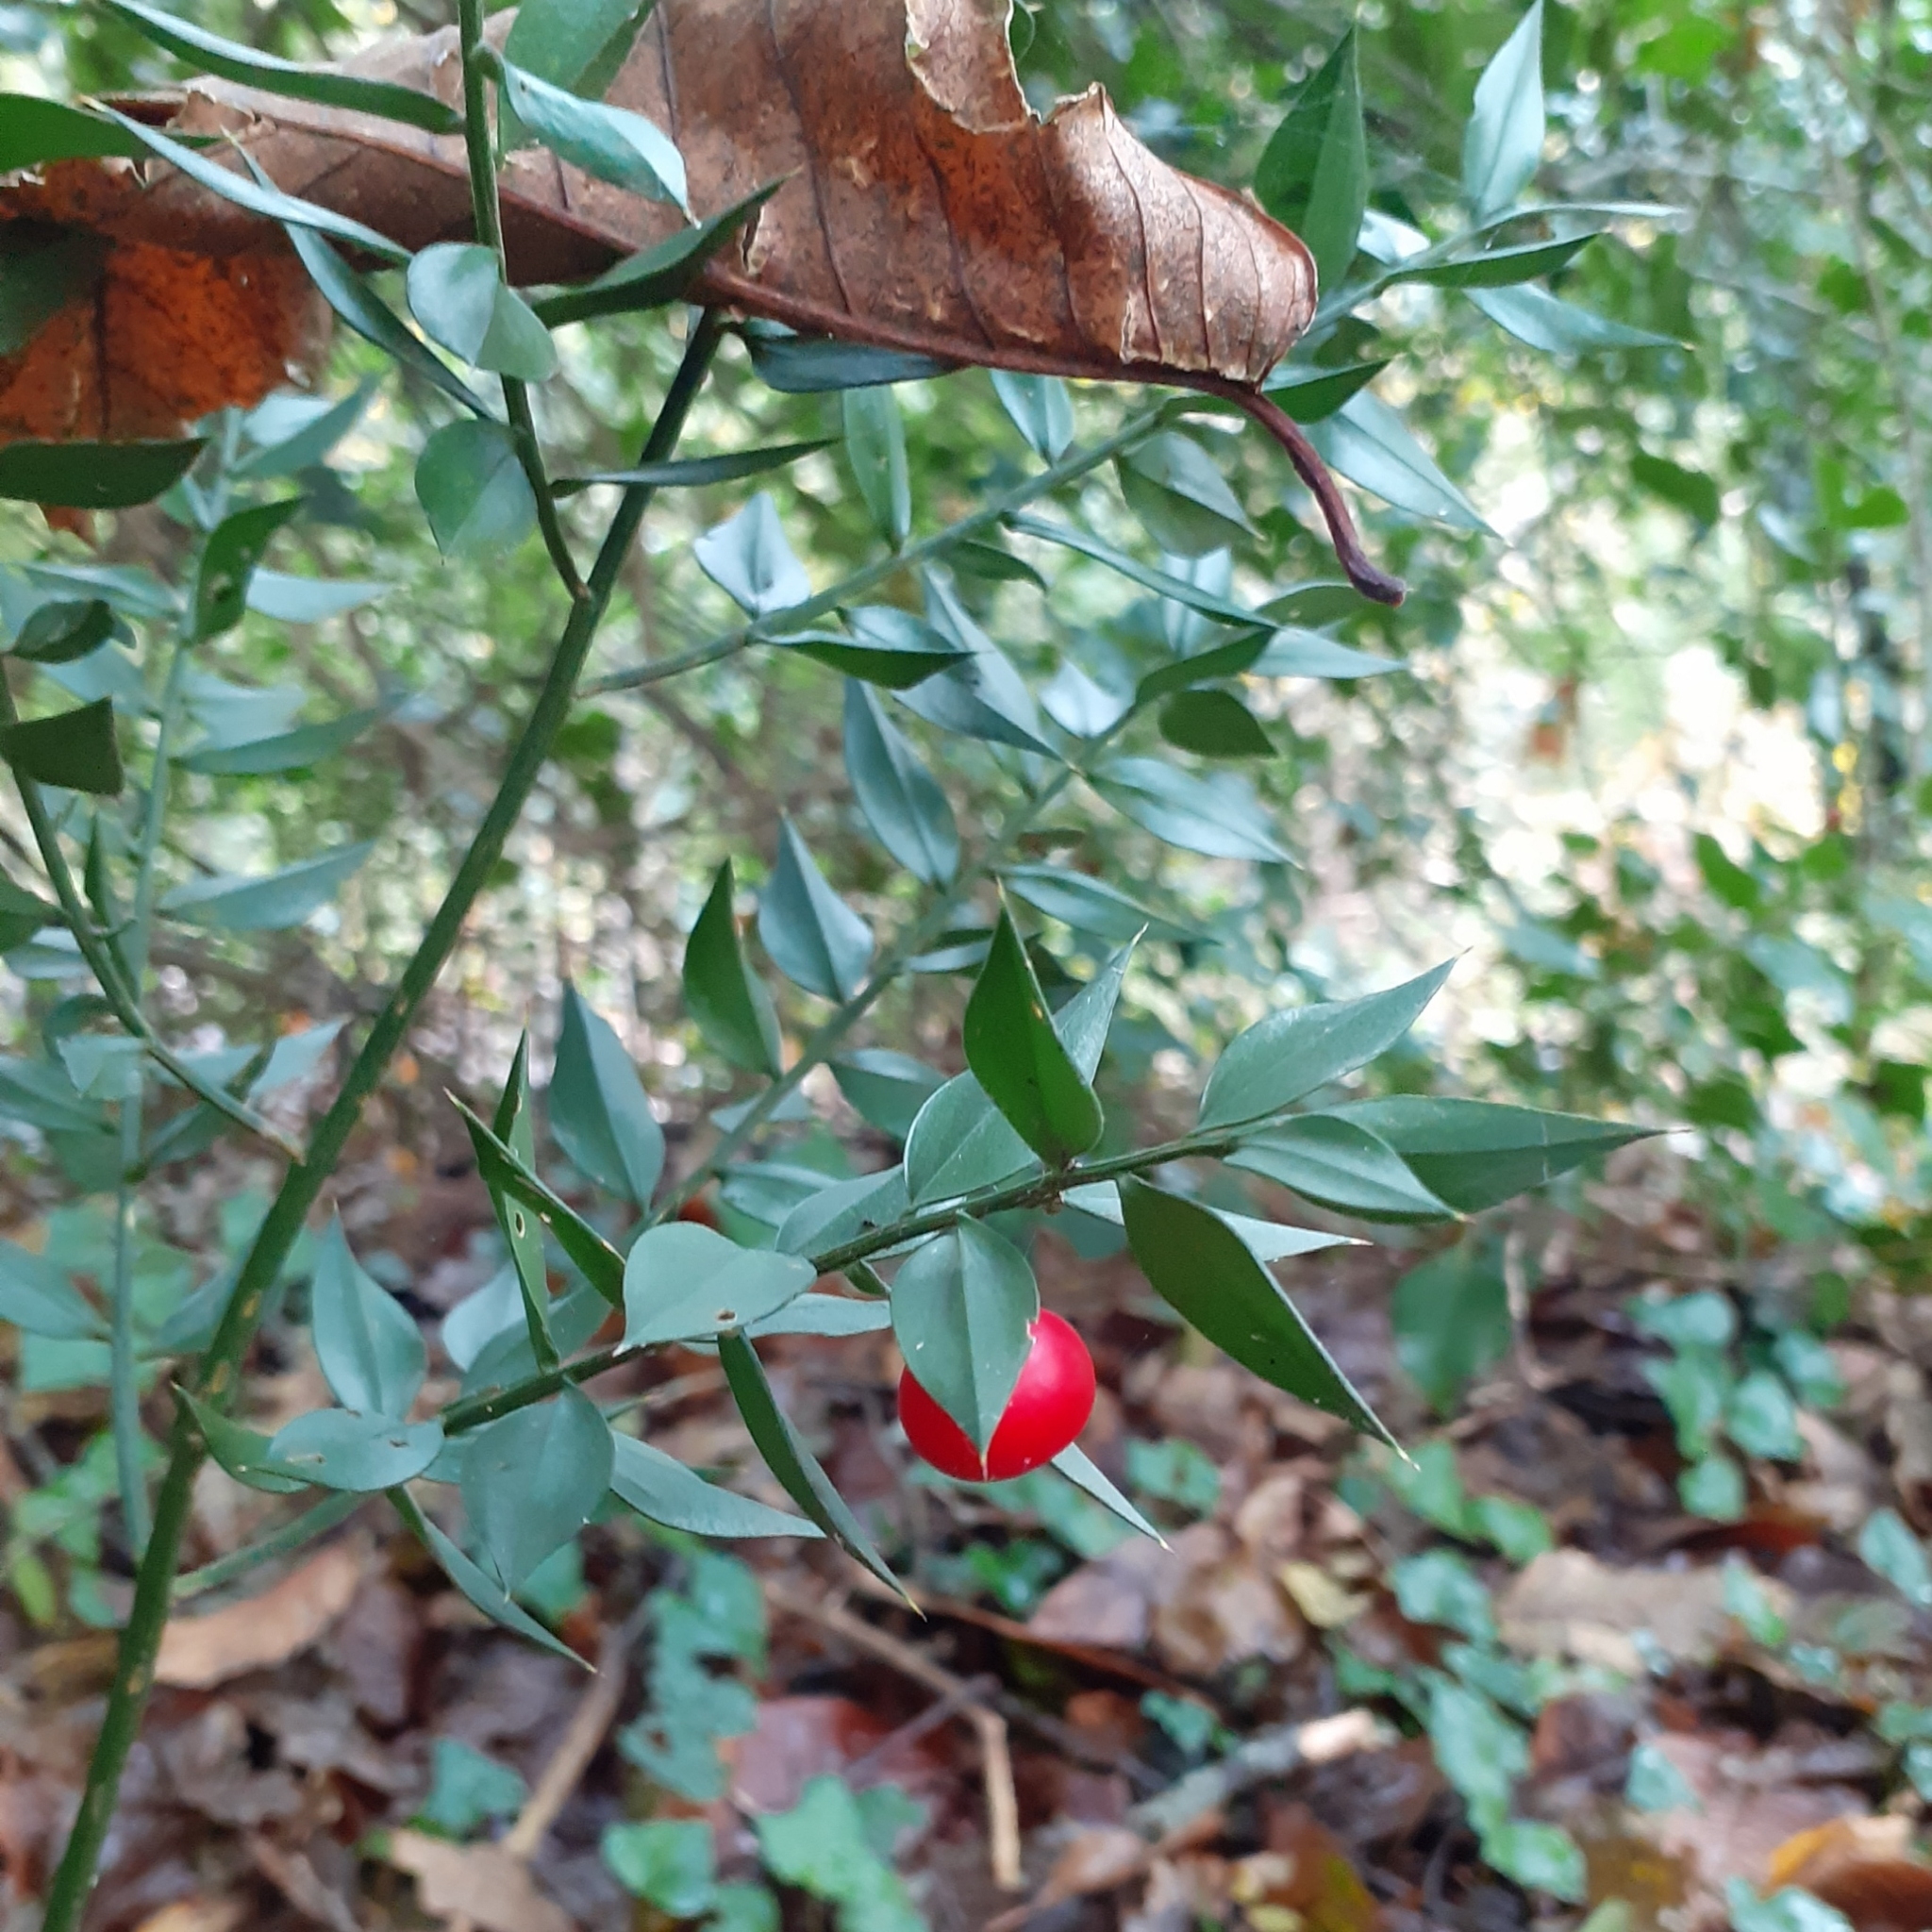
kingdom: Plantae
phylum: Tracheophyta
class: Liliopsida
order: Asparagales
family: Asparagaceae
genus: Ruscus
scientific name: Ruscus aculeatus
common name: Butcher's-broom
